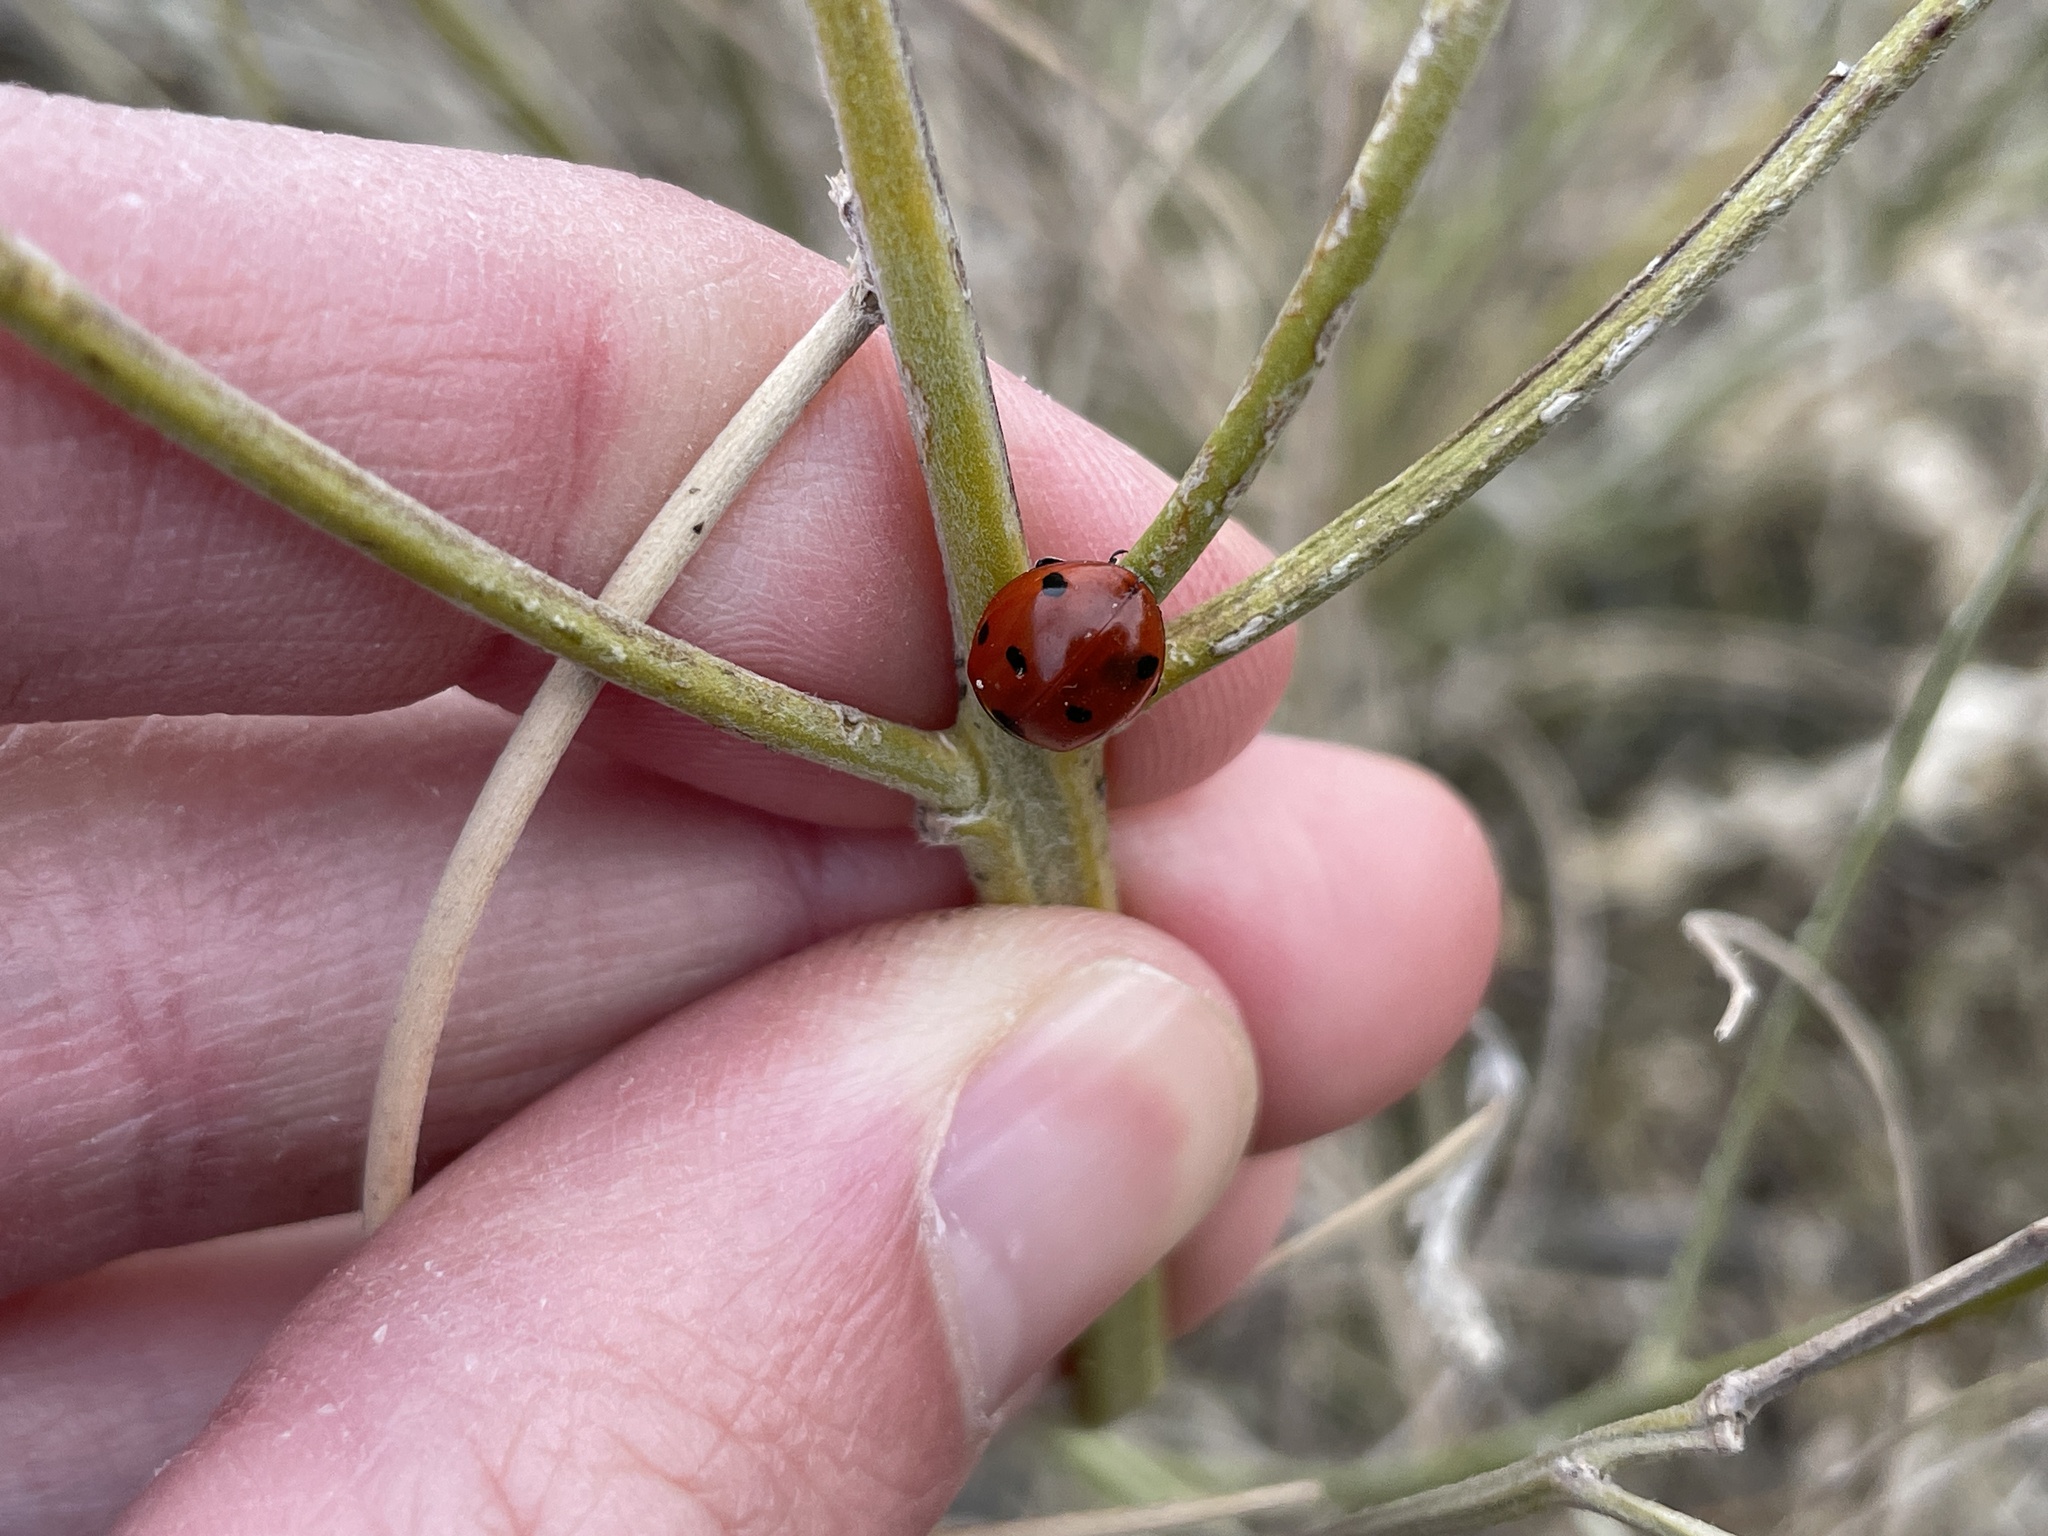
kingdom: Animalia
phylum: Arthropoda
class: Insecta
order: Coleoptera
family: Coccinellidae
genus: Coccinella
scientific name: Coccinella septempunctata
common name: Sevenspotted lady beetle
